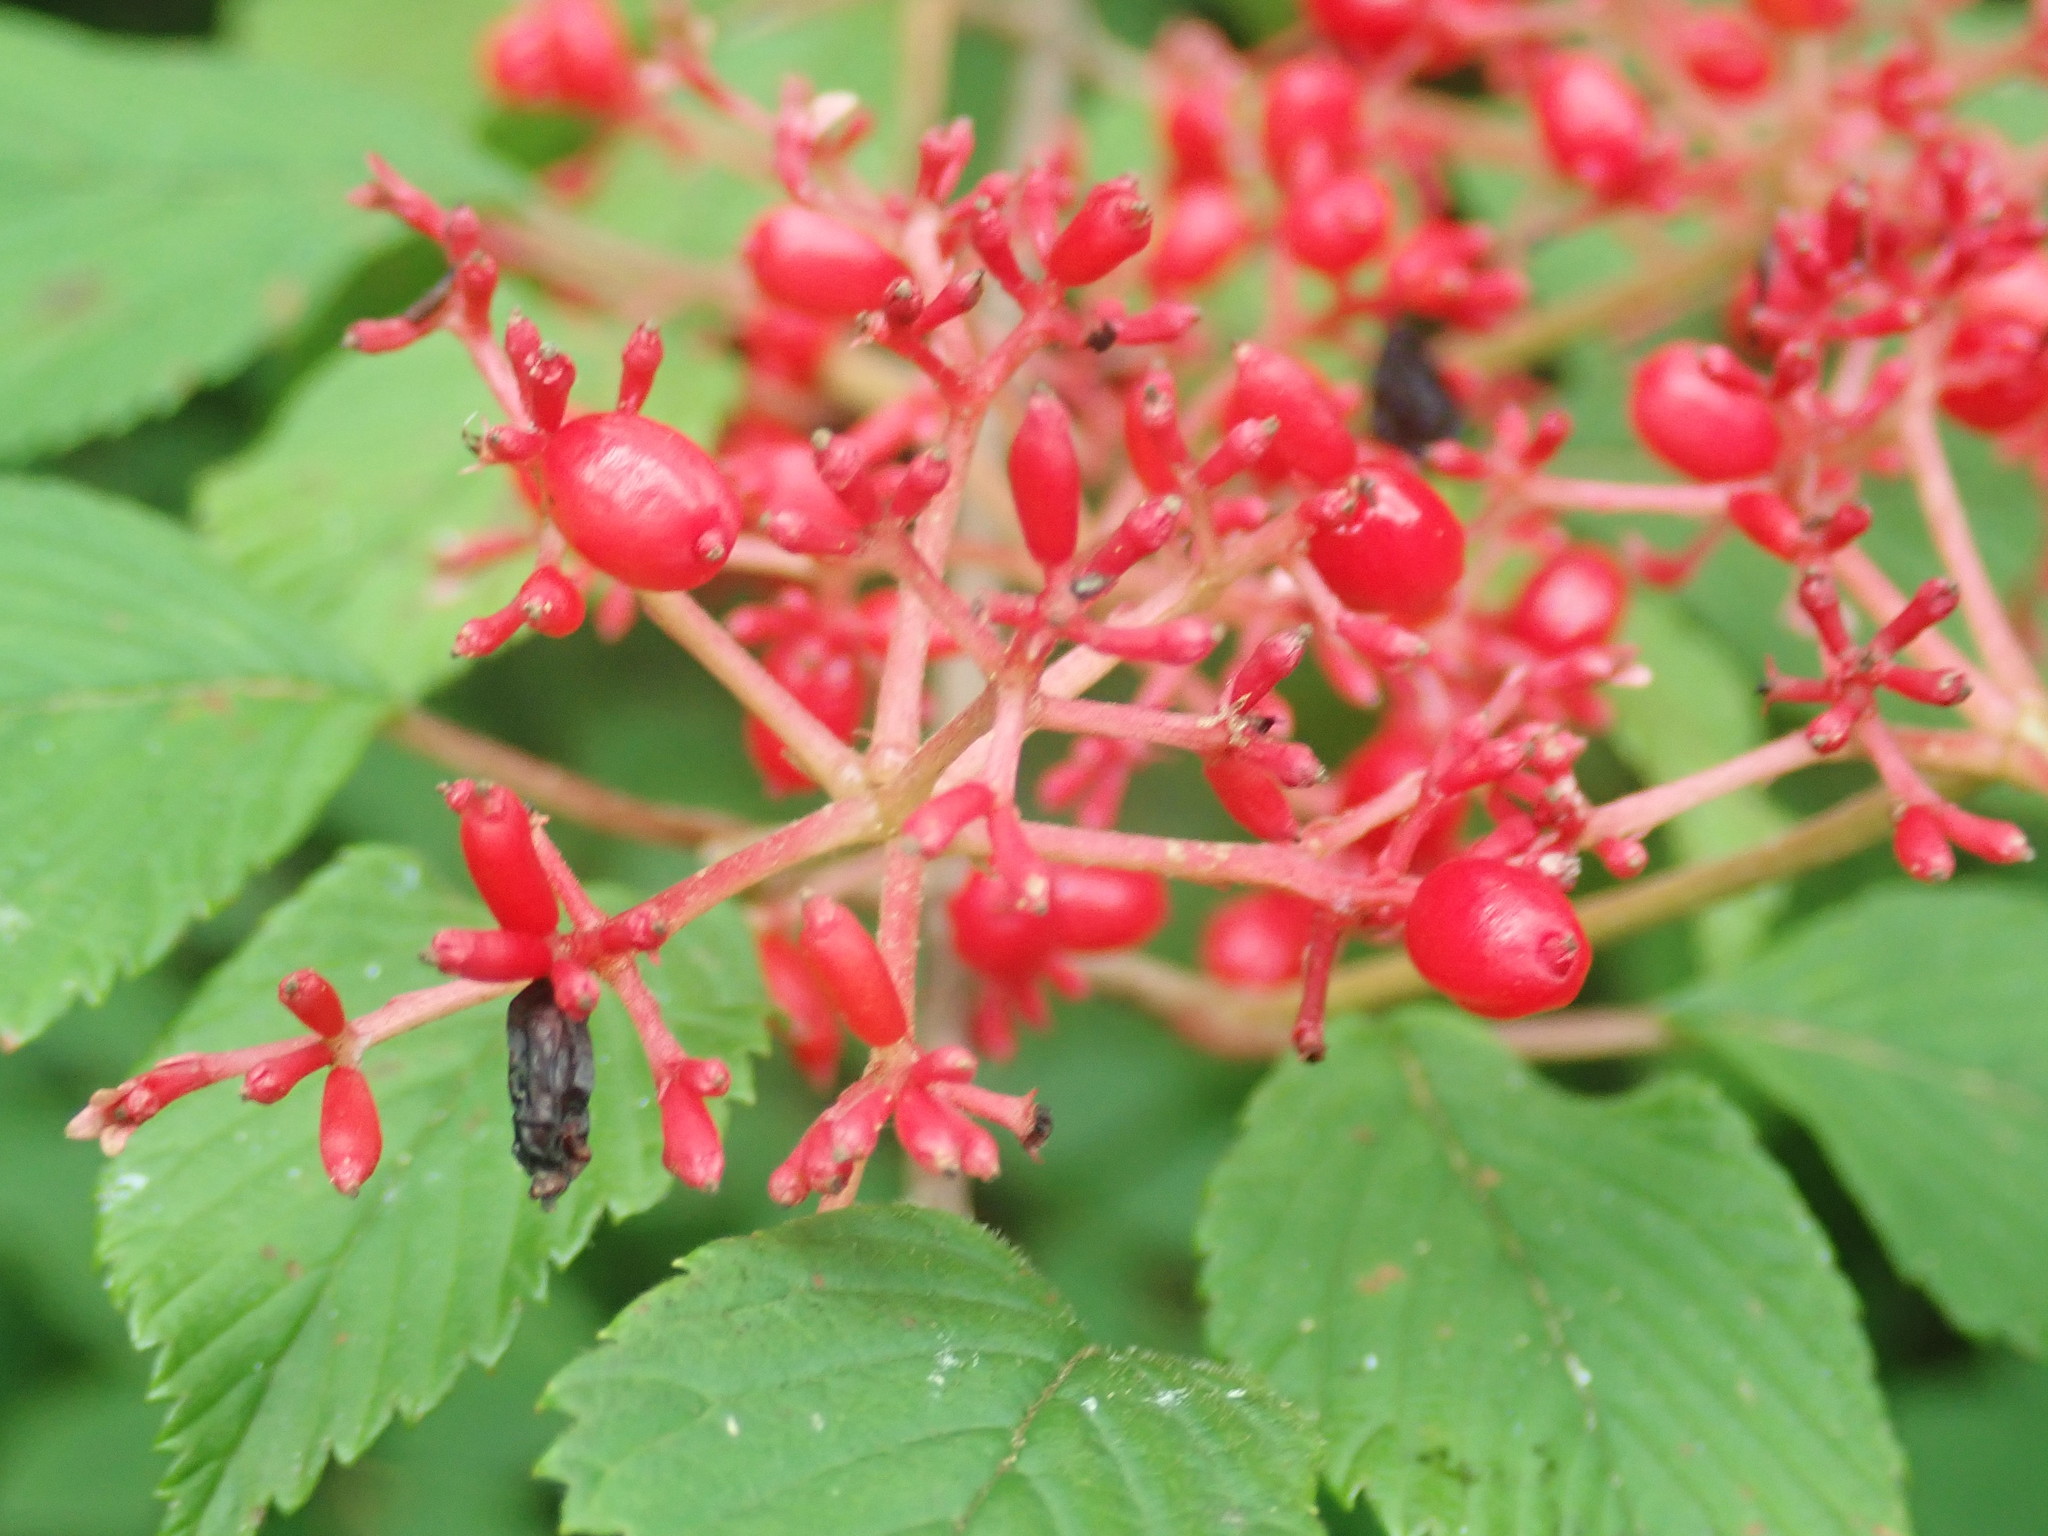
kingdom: Plantae
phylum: Tracheophyta
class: Magnoliopsida
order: Dipsacales
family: Viburnaceae
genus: Viburnum
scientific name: Viburnum plicatum
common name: Japanese snowball
